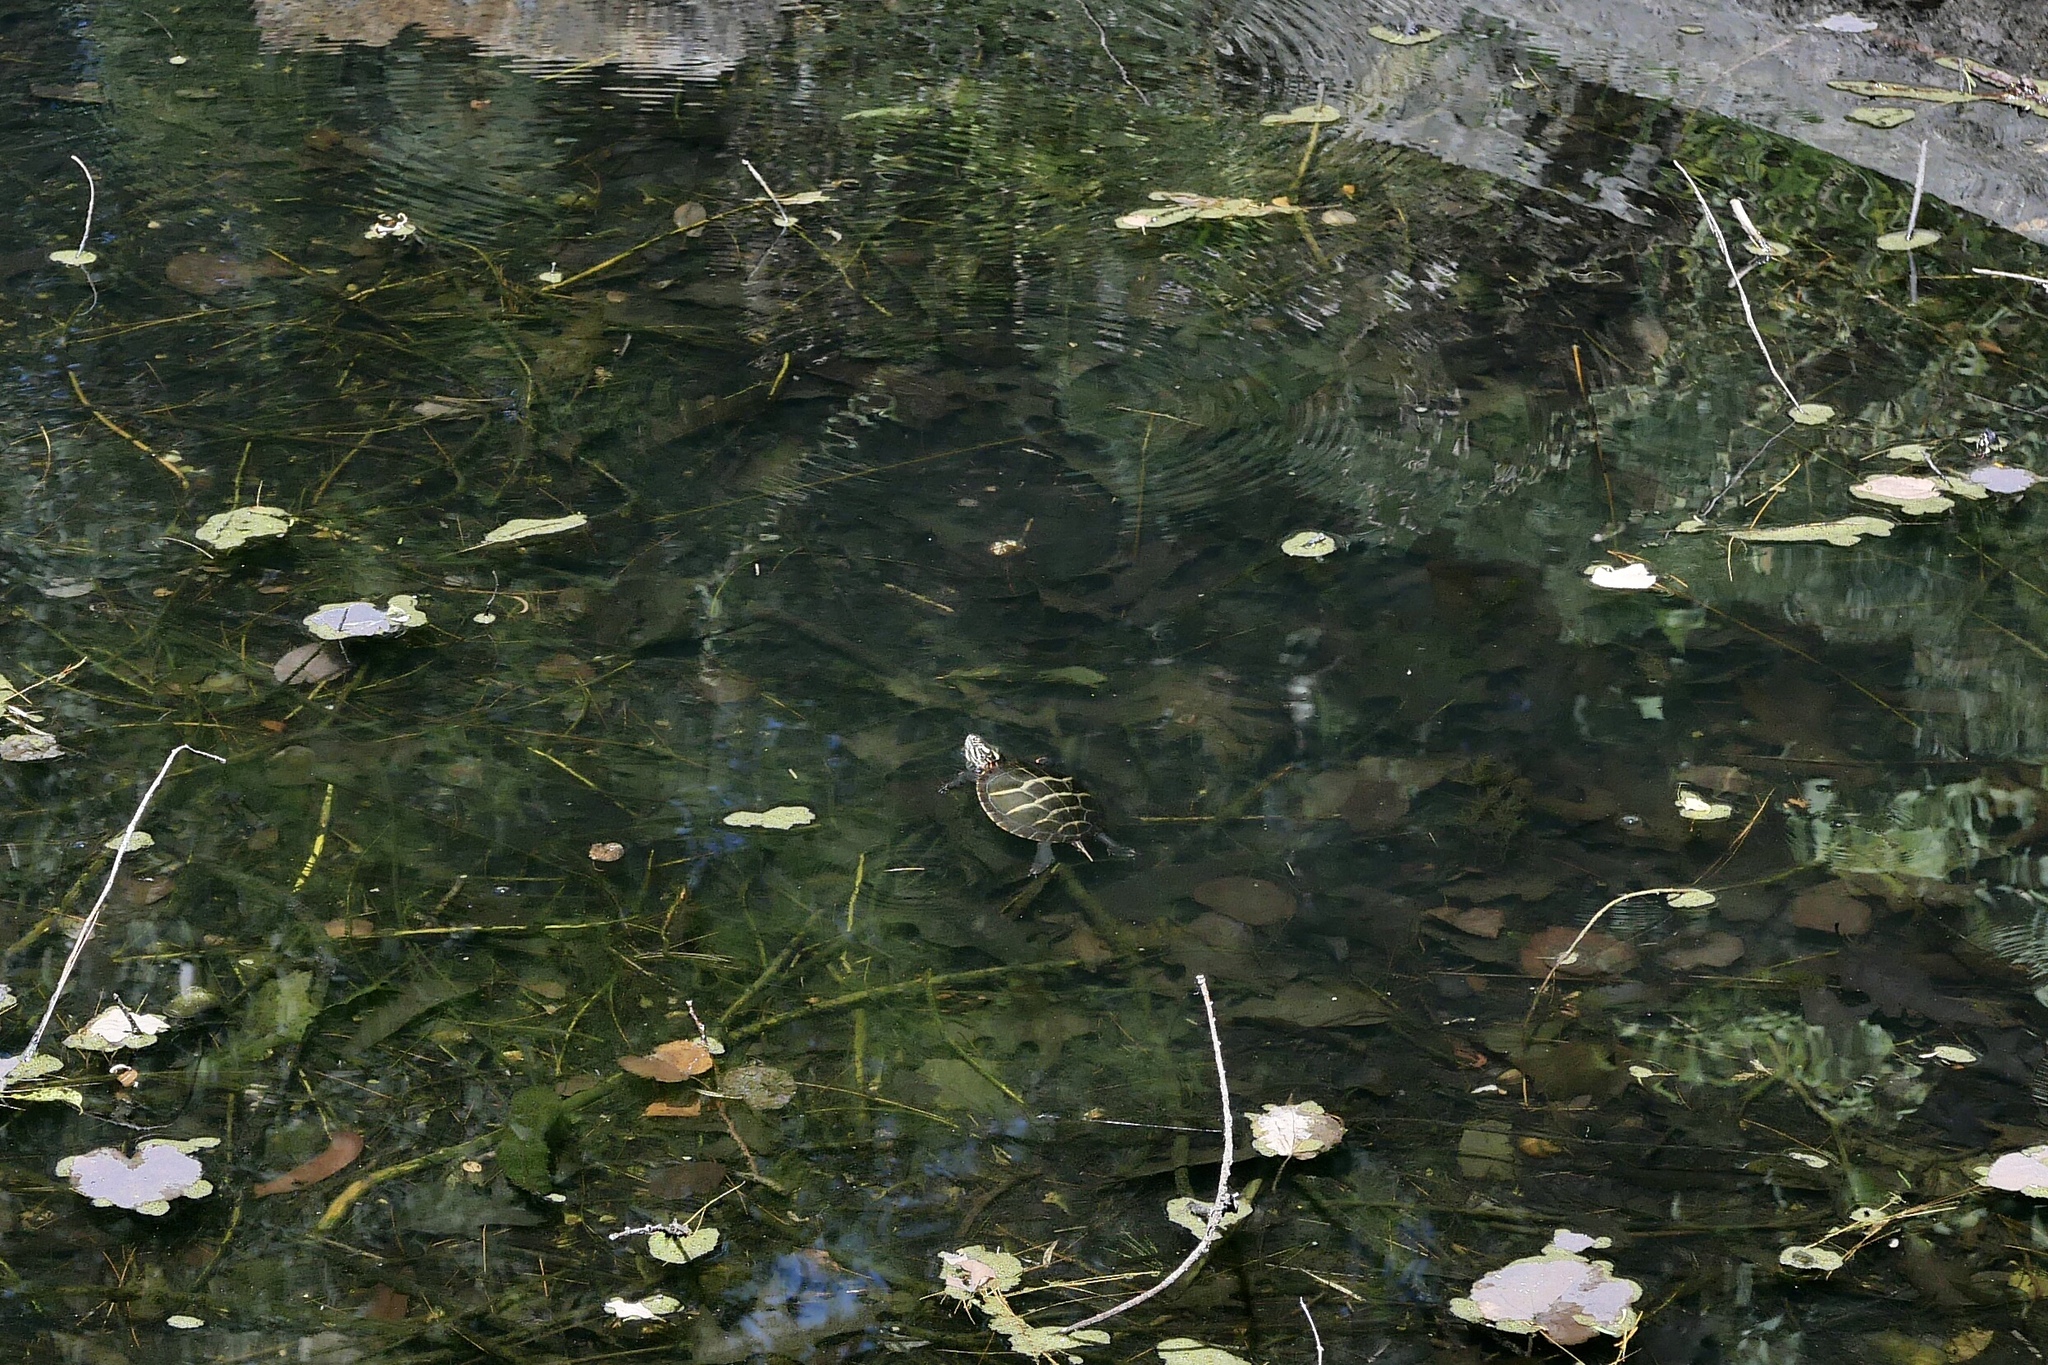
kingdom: Animalia
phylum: Chordata
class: Testudines
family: Emydidae
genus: Chrysemys
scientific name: Chrysemys picta
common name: Painted turtle
